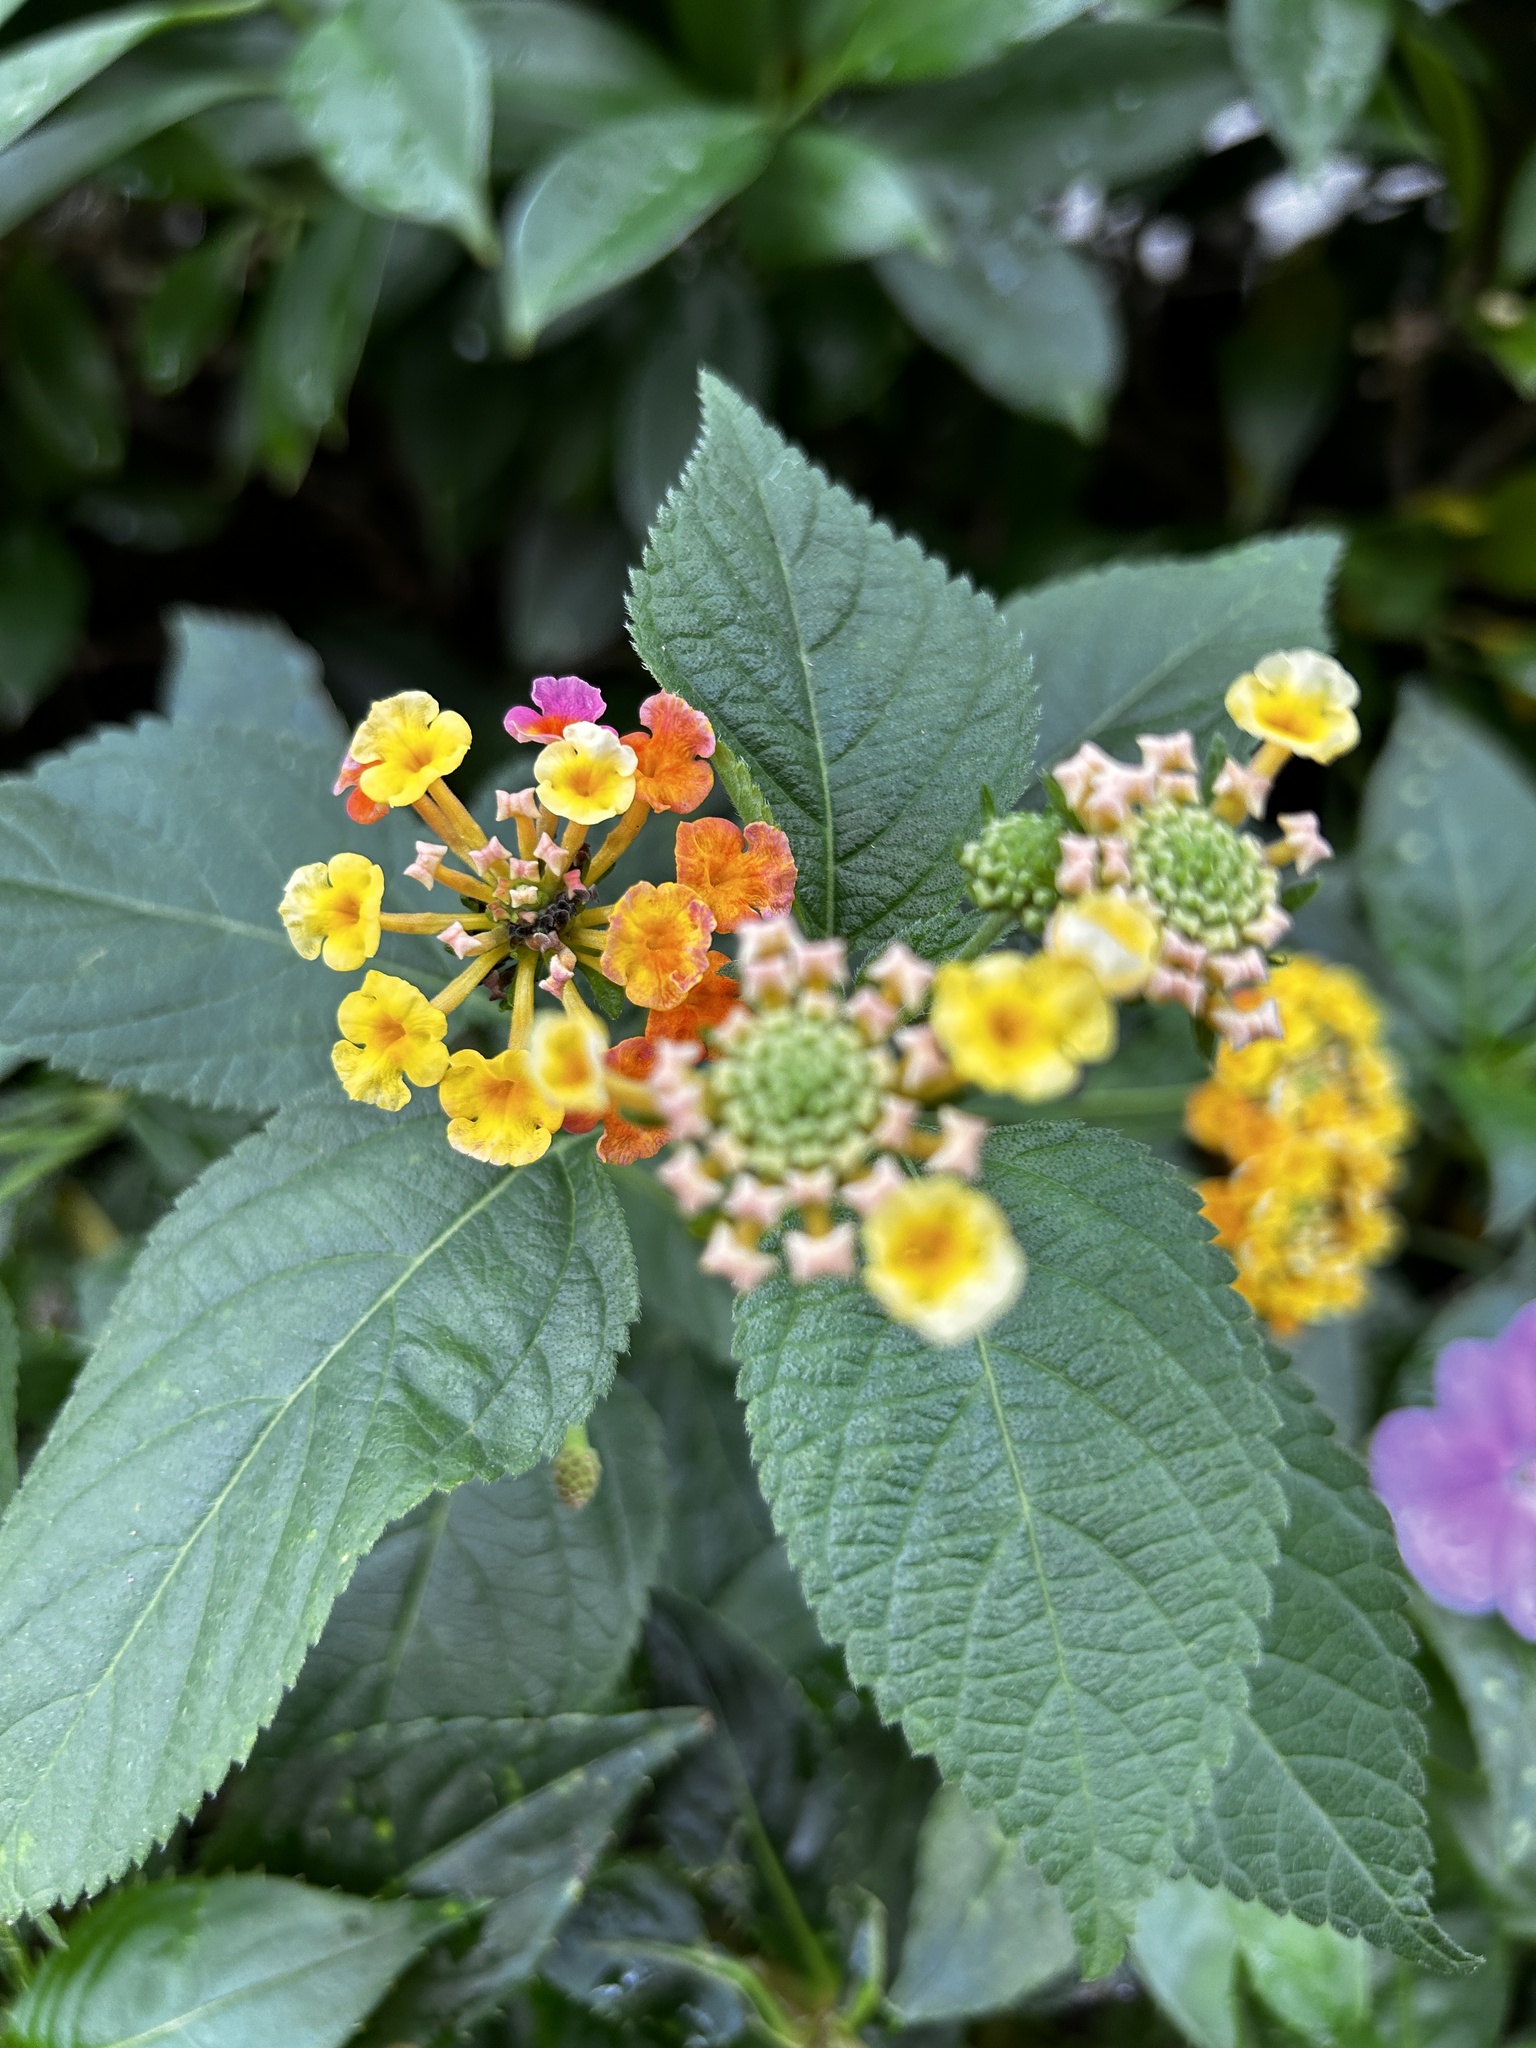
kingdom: Plantae
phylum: Tracheophyta
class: Magnoliopsida
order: Lamiales
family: Verbenaceae
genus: Lantana
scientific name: Lantana camara
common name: Lantana
